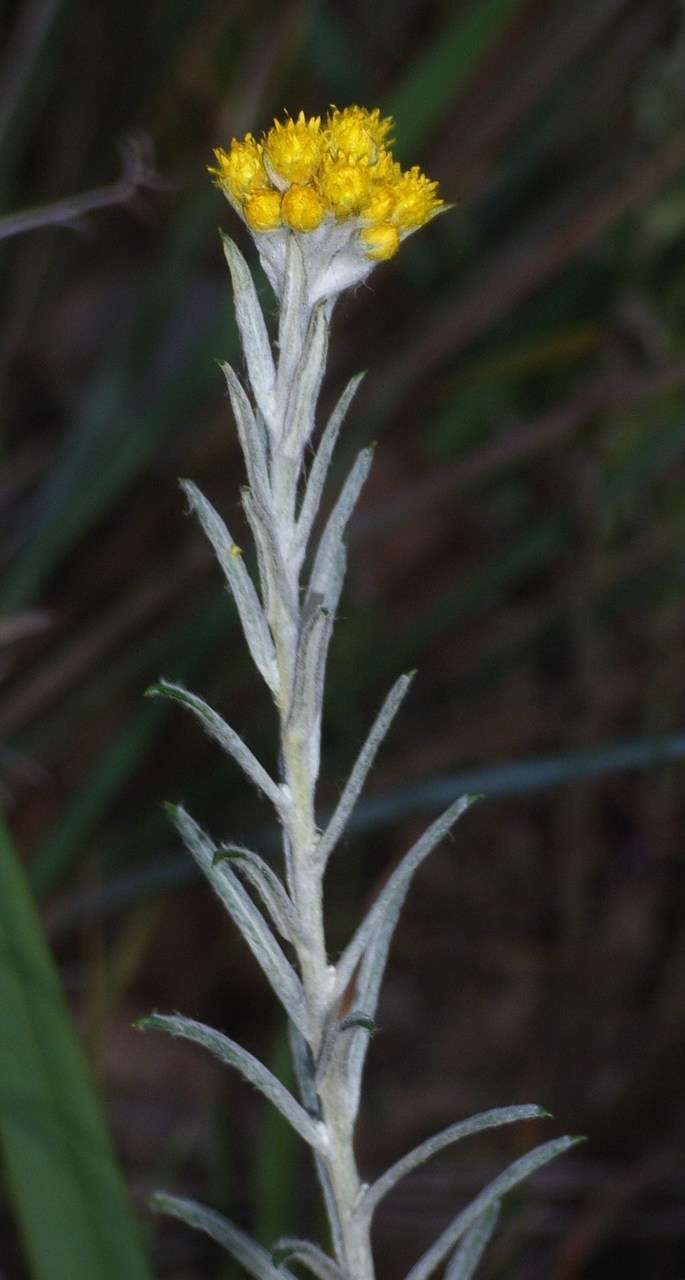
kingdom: Plantae
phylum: Tracheophyta
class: Magnoliopsida
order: Asterales
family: Asteraceae
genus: Chrysocephalum
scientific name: Chrysocephalum semipapposum
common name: Clustered everlasting
